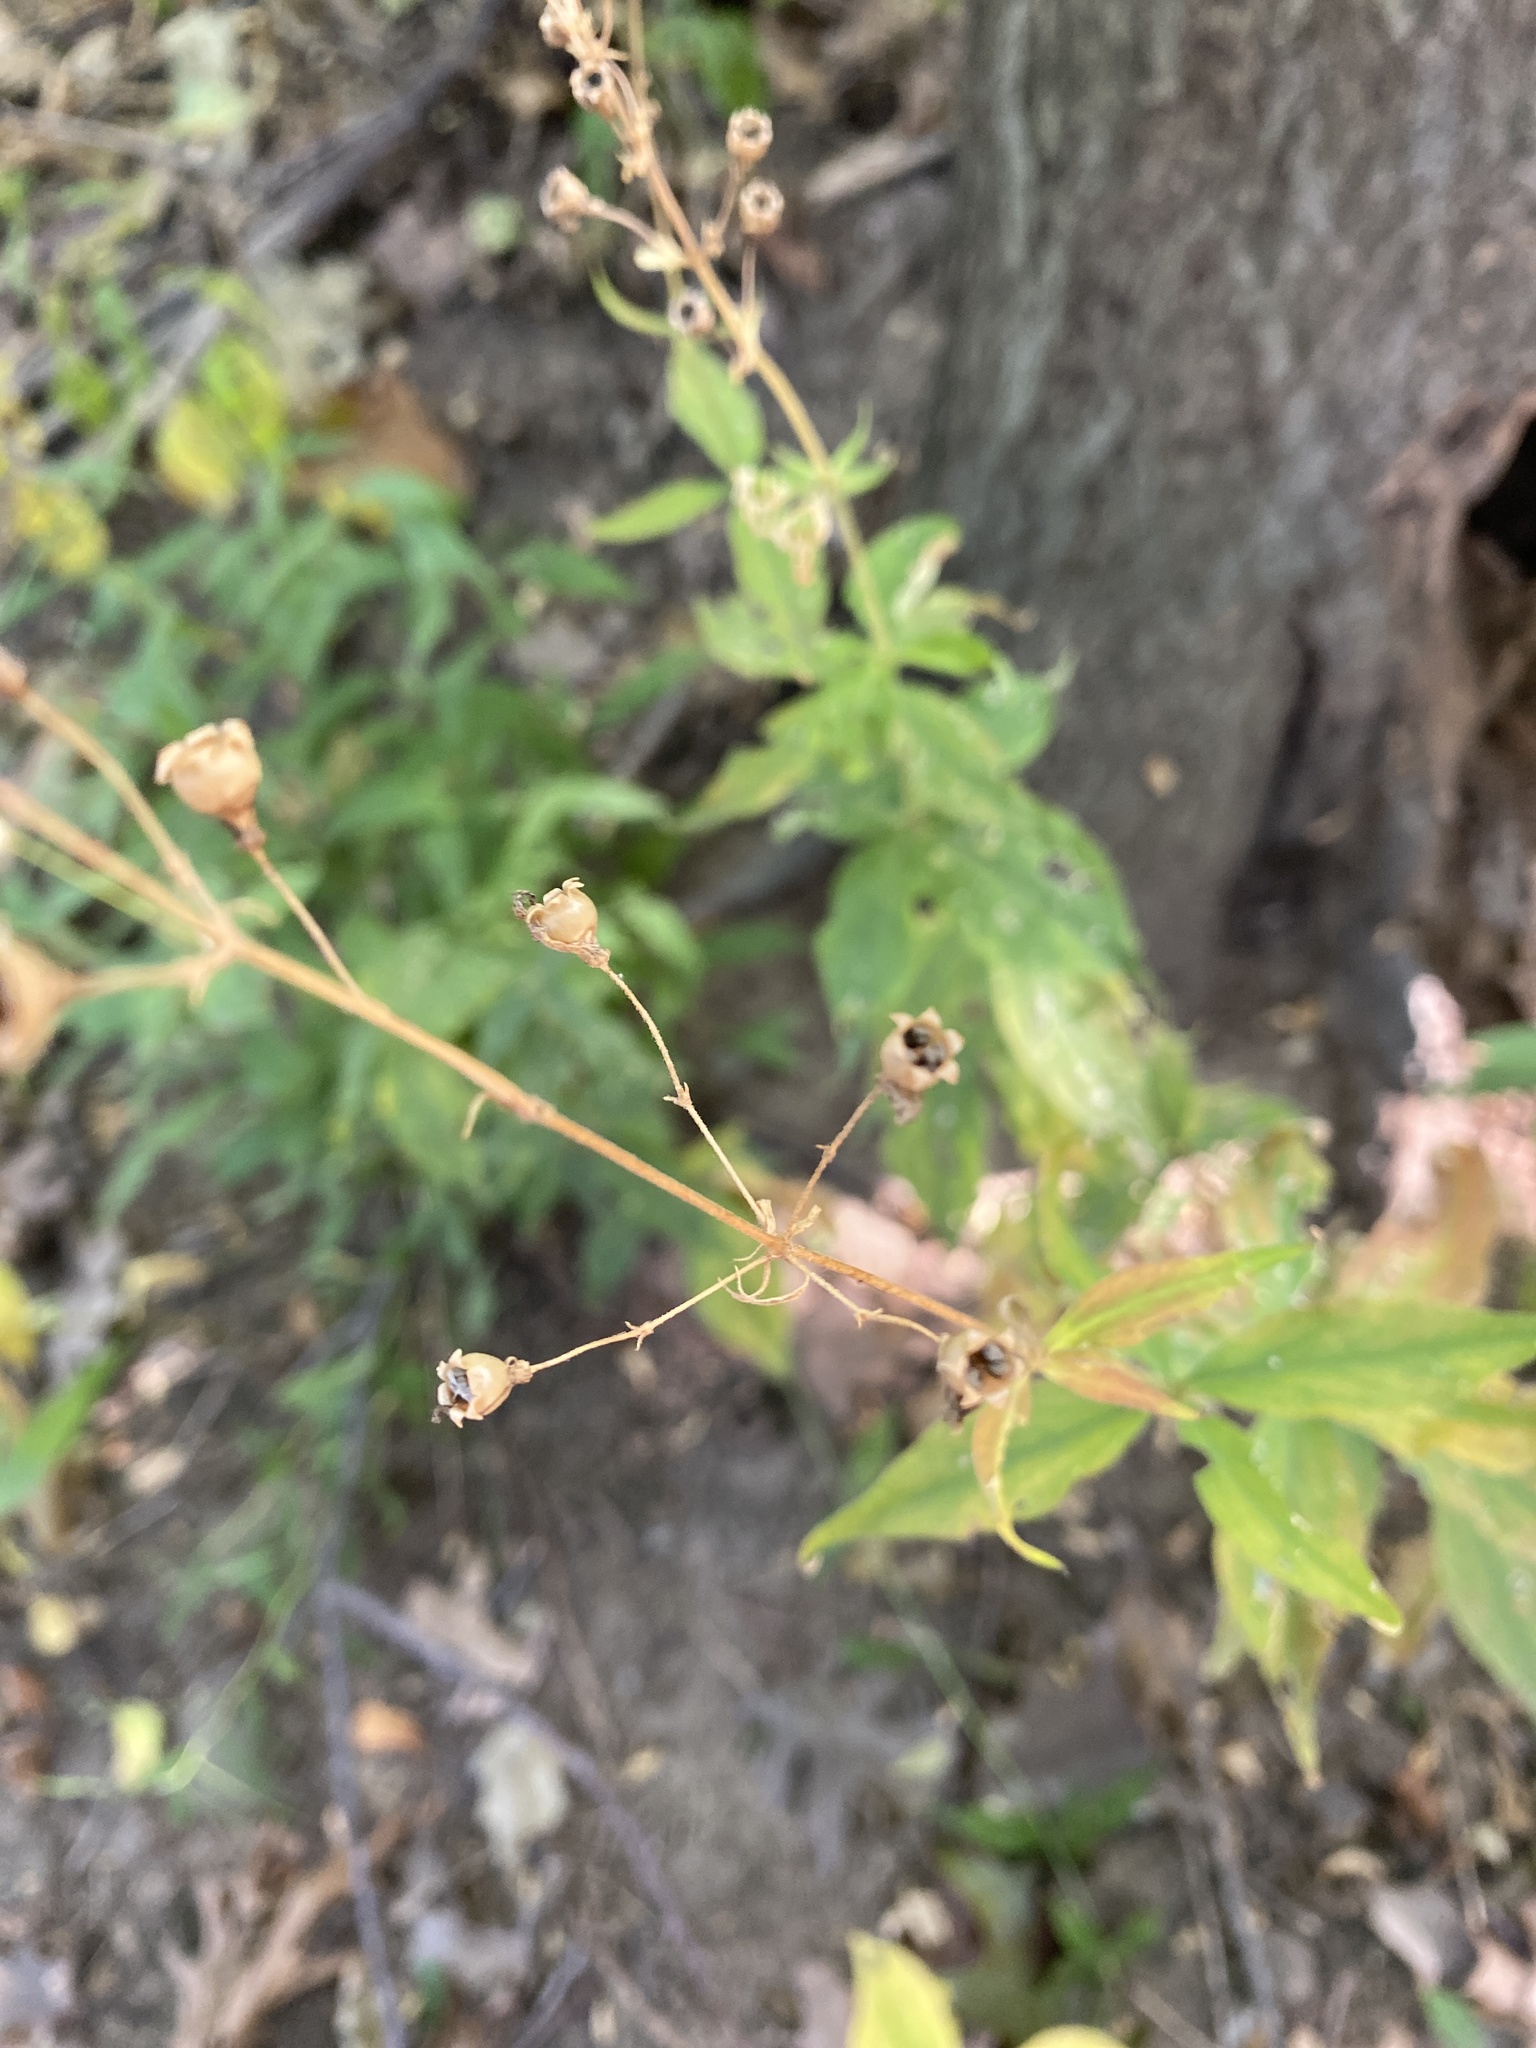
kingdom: Plantae
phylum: Tracheophyta
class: Magnoliopsida
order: Caryophyllales
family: Caryophyllaceae
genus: Silene
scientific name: Silene stellata
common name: Starry campion
